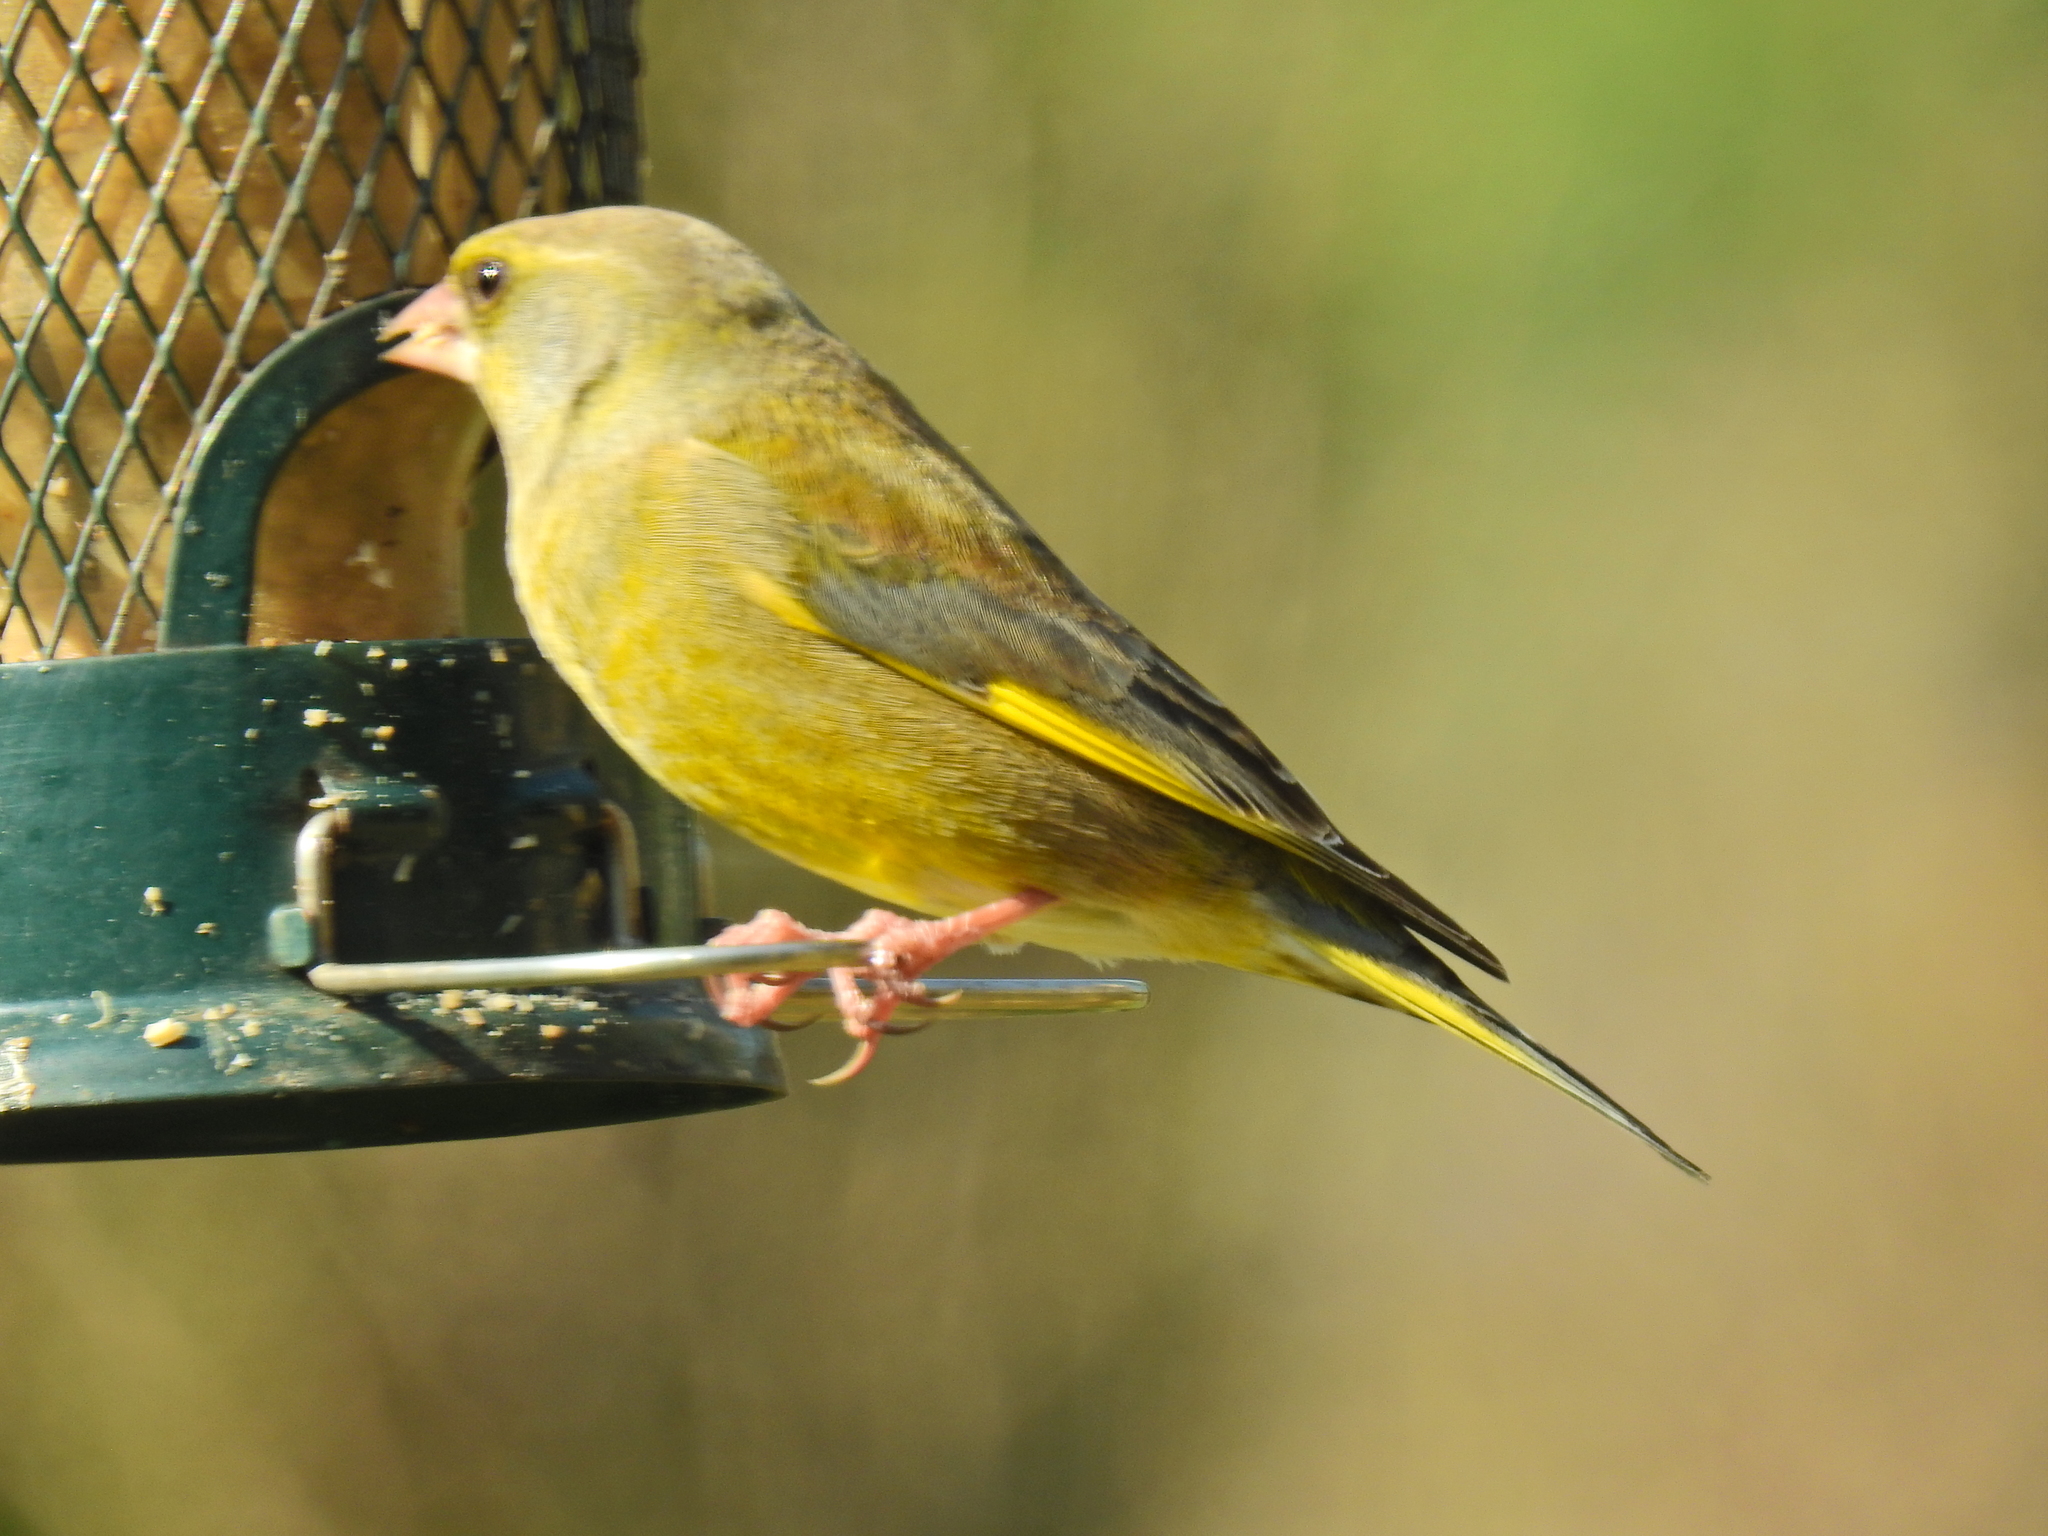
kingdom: Plantae
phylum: Tracheophyta
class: Liliopsida
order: Poales
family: Poaceae
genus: Chloris
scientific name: Chloris chloris
